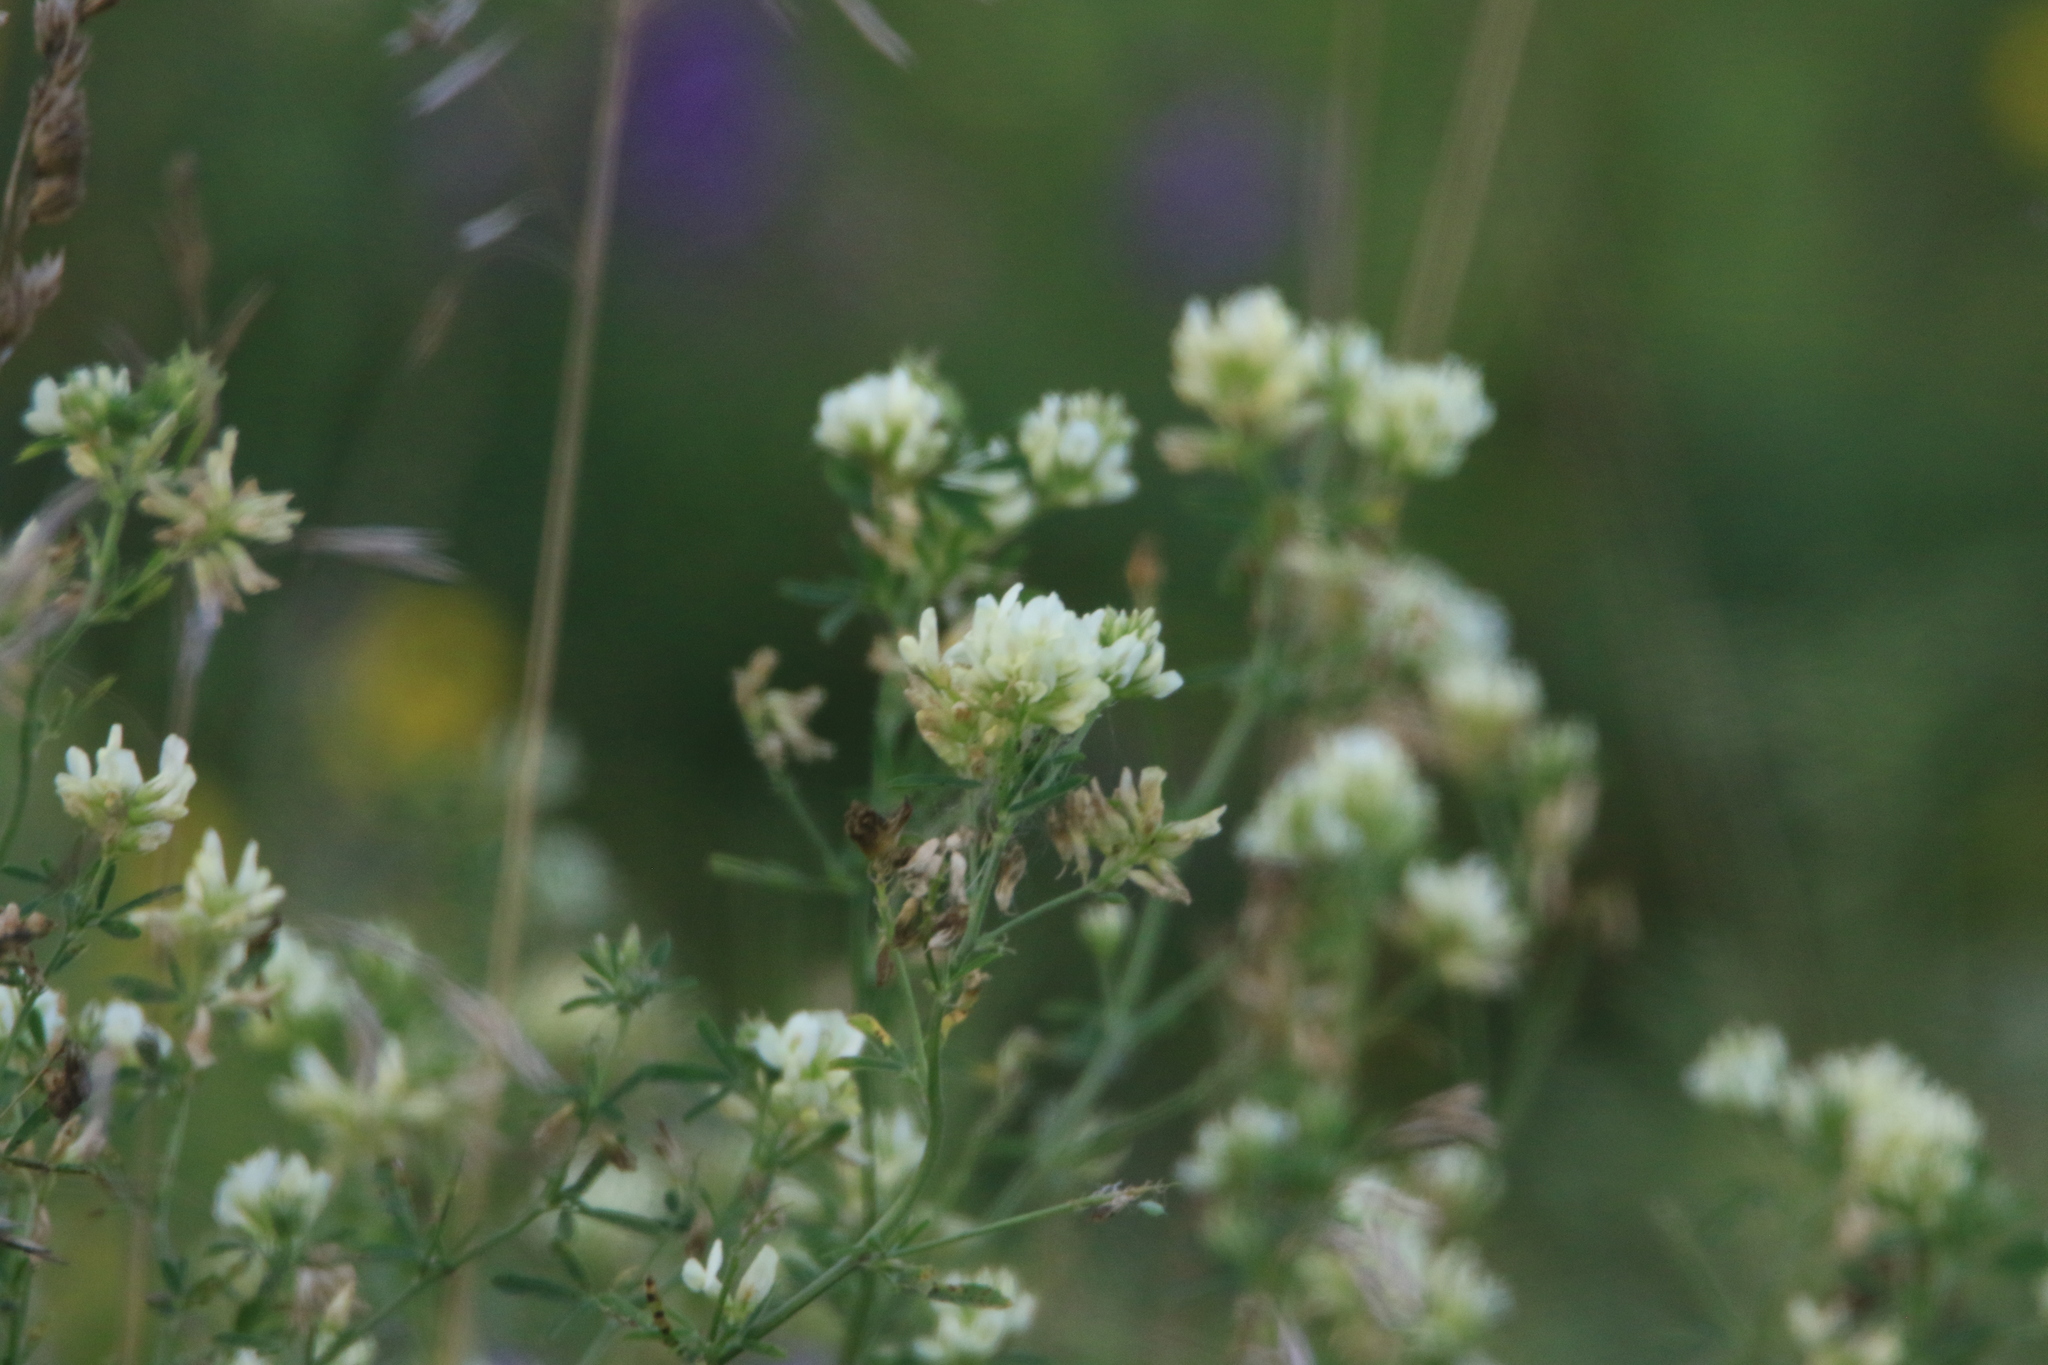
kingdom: Plantae
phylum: Tracheophyta
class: Magnoliopsida
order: Fabales
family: Fabaceae
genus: Medicago
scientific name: Medicago varia
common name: Sand lucerne
